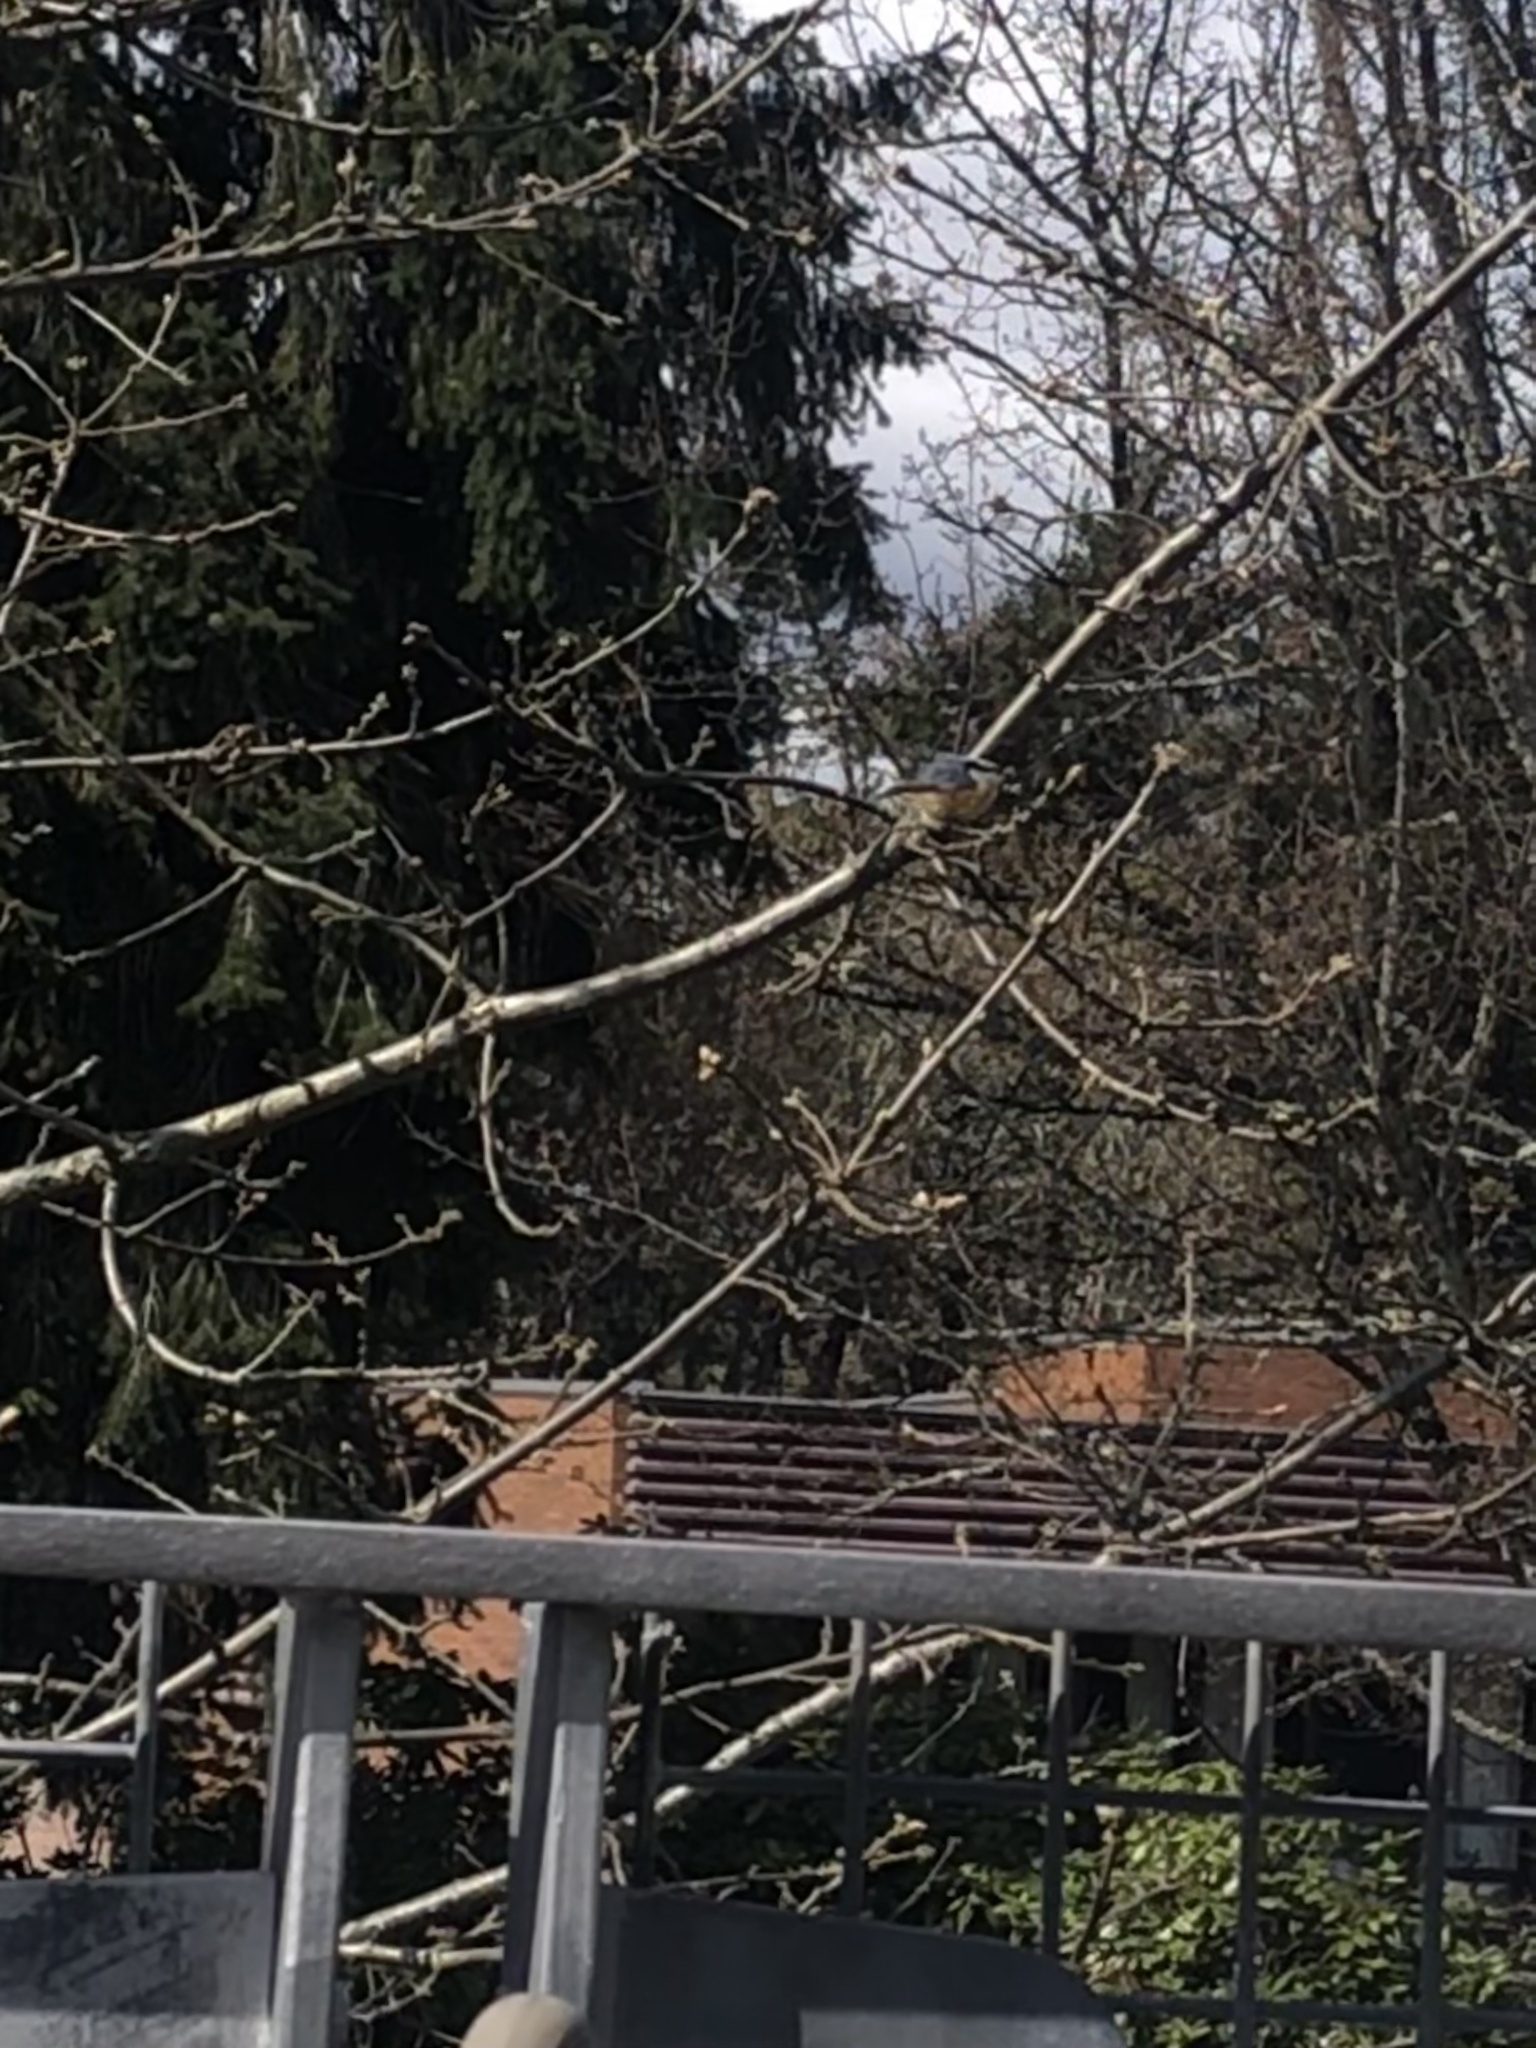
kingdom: Animalia
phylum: Chordata
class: Aves
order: Passeriformes
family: Sittidae
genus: Sitta
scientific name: Sitta canadensis
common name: Red-breasted nuthatch
